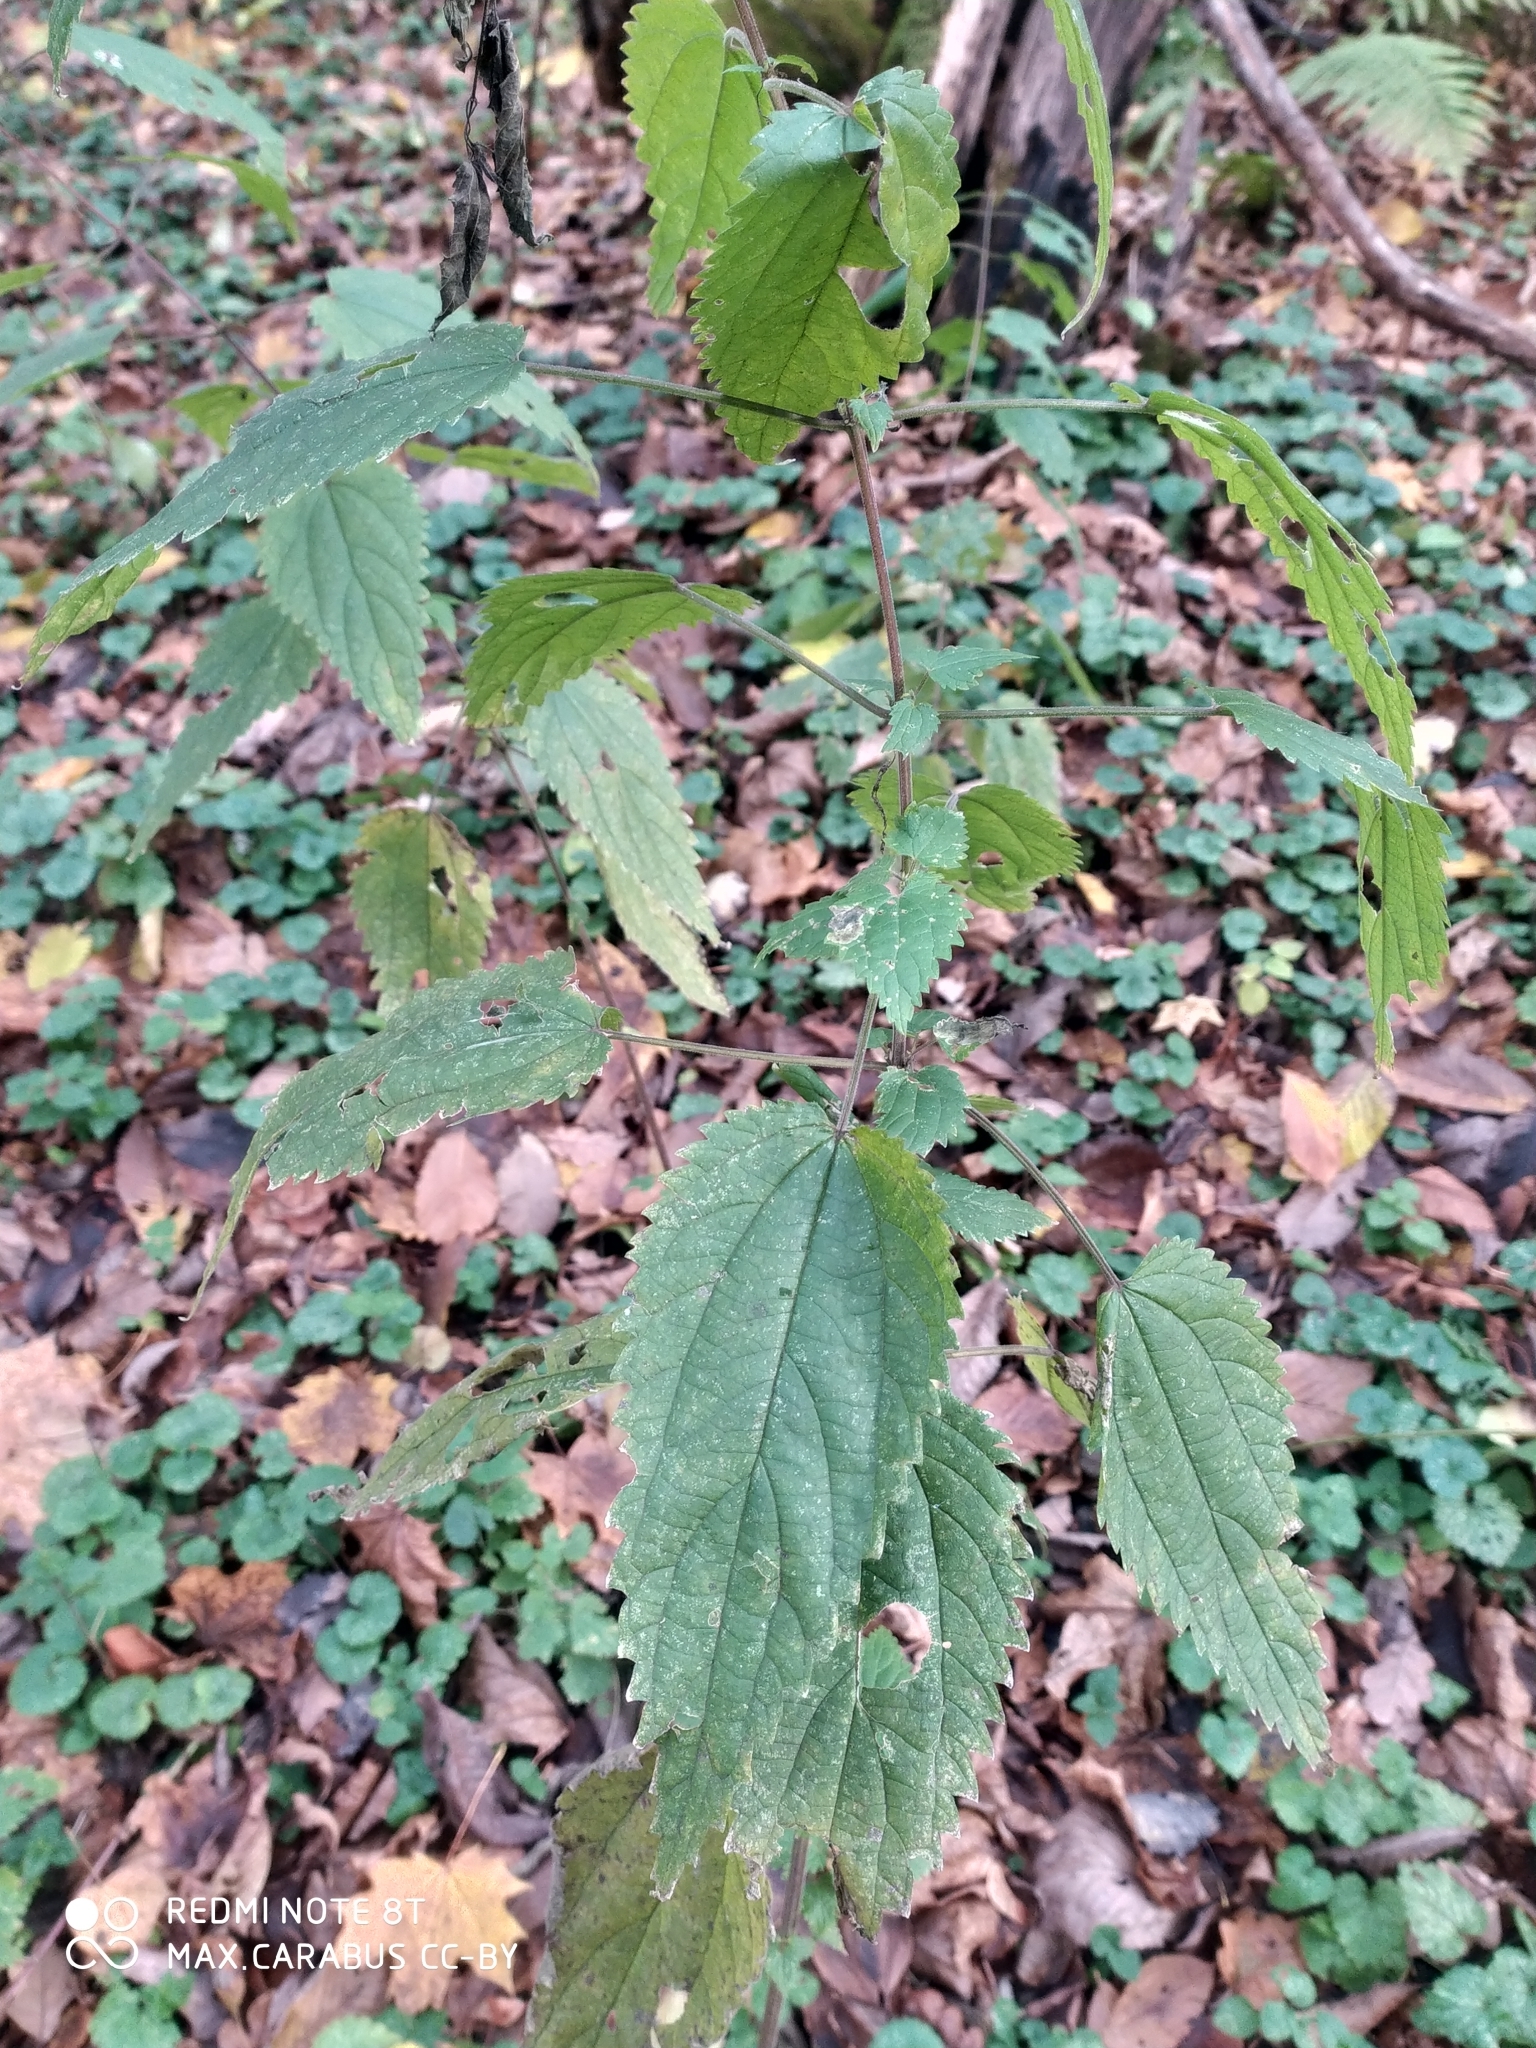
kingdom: Plantae
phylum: Tracheophyta
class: Magnoliopsida
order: Rosales
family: Urticaceae
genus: Urtica
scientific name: Urtica dioica
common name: Common nettle
